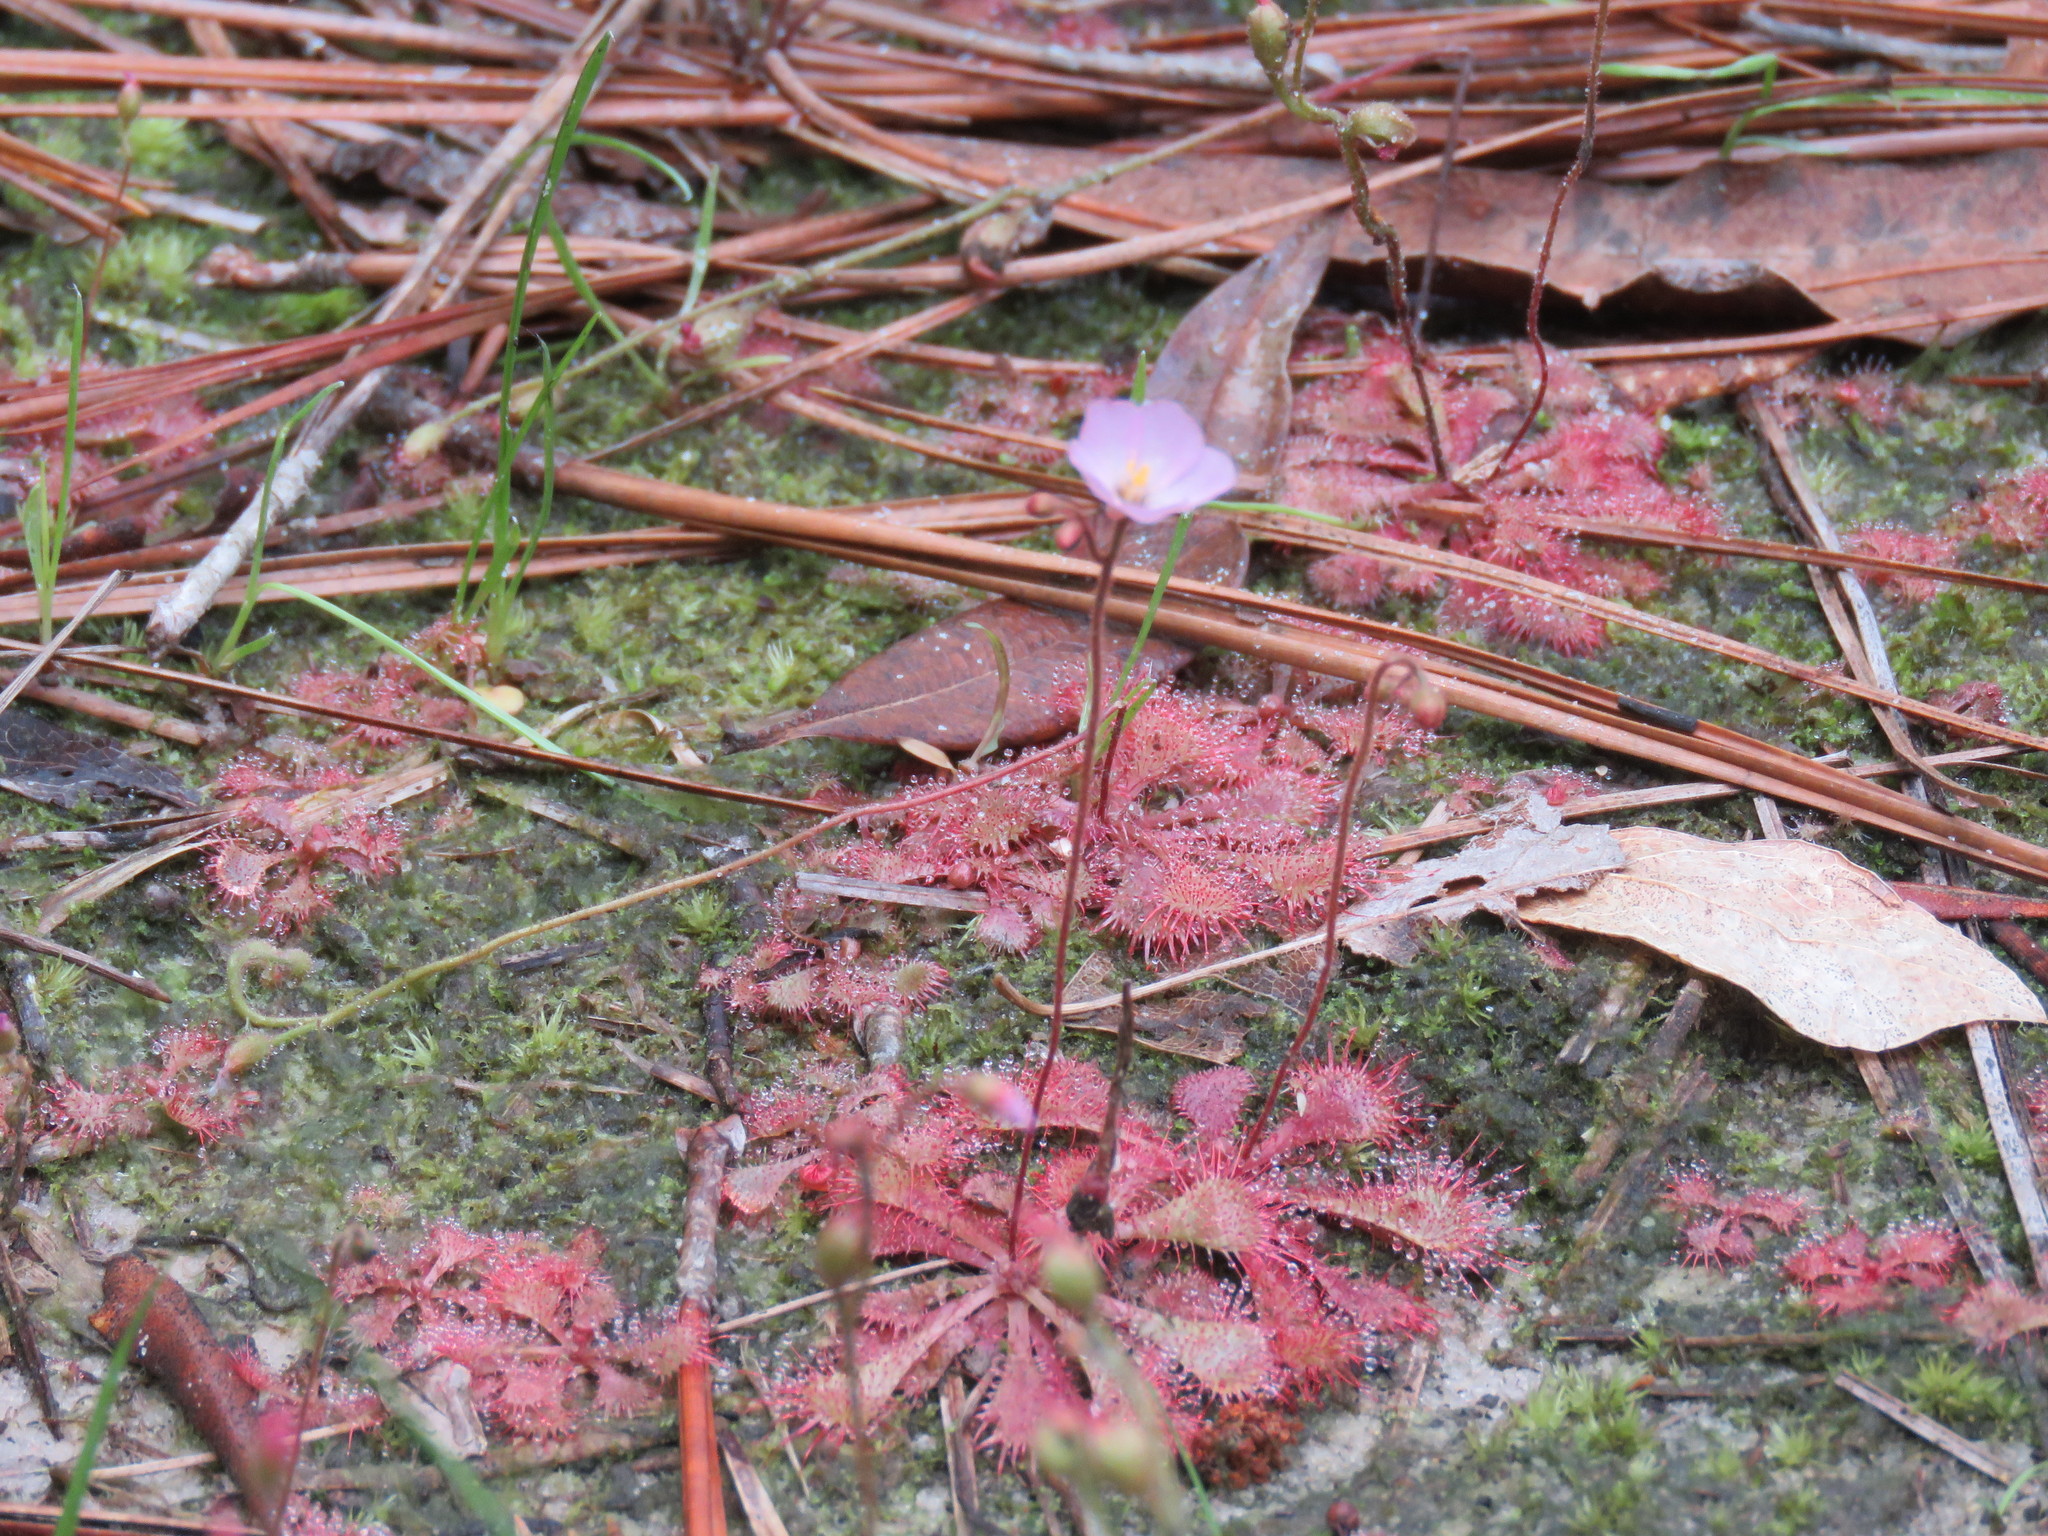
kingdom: Plantae
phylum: Tracheophyta
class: Magnoliopsida
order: Caryophyllales
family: Droseraceae
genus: Drosera
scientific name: Drosera brevifolia
